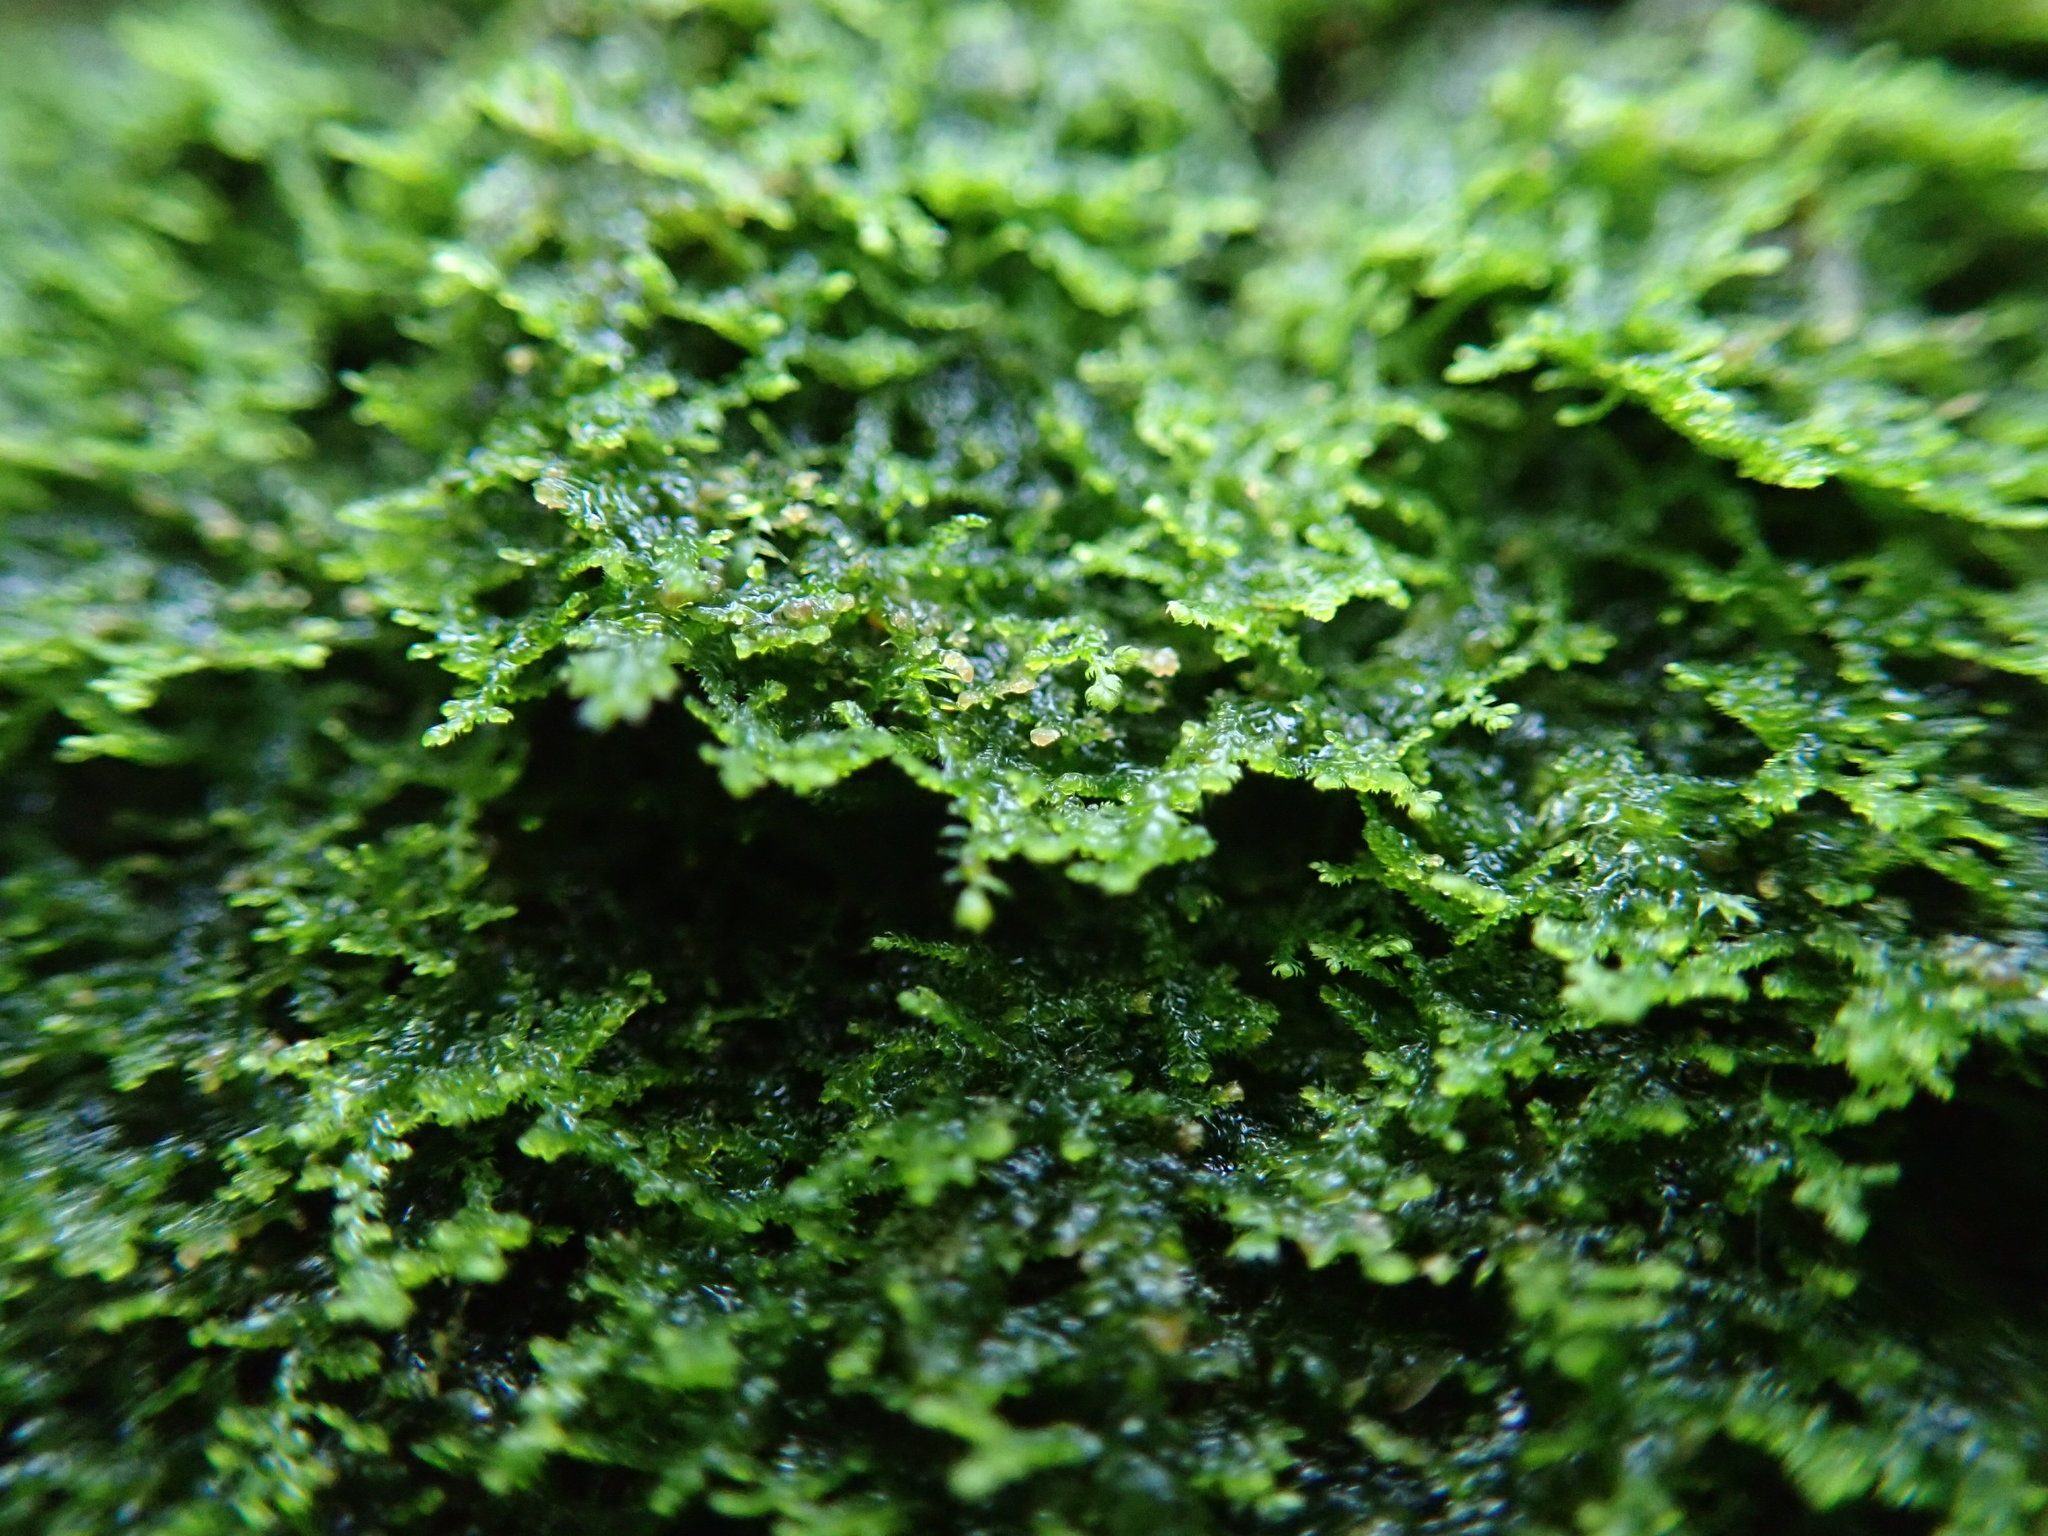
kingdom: Plantae
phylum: Marchantiophyta
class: Jungermanniopsida
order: Jungermanniales
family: Lepidoziaceae
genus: Lepidozia
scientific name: Lepidozia reptans
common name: Creeping fingerwort
